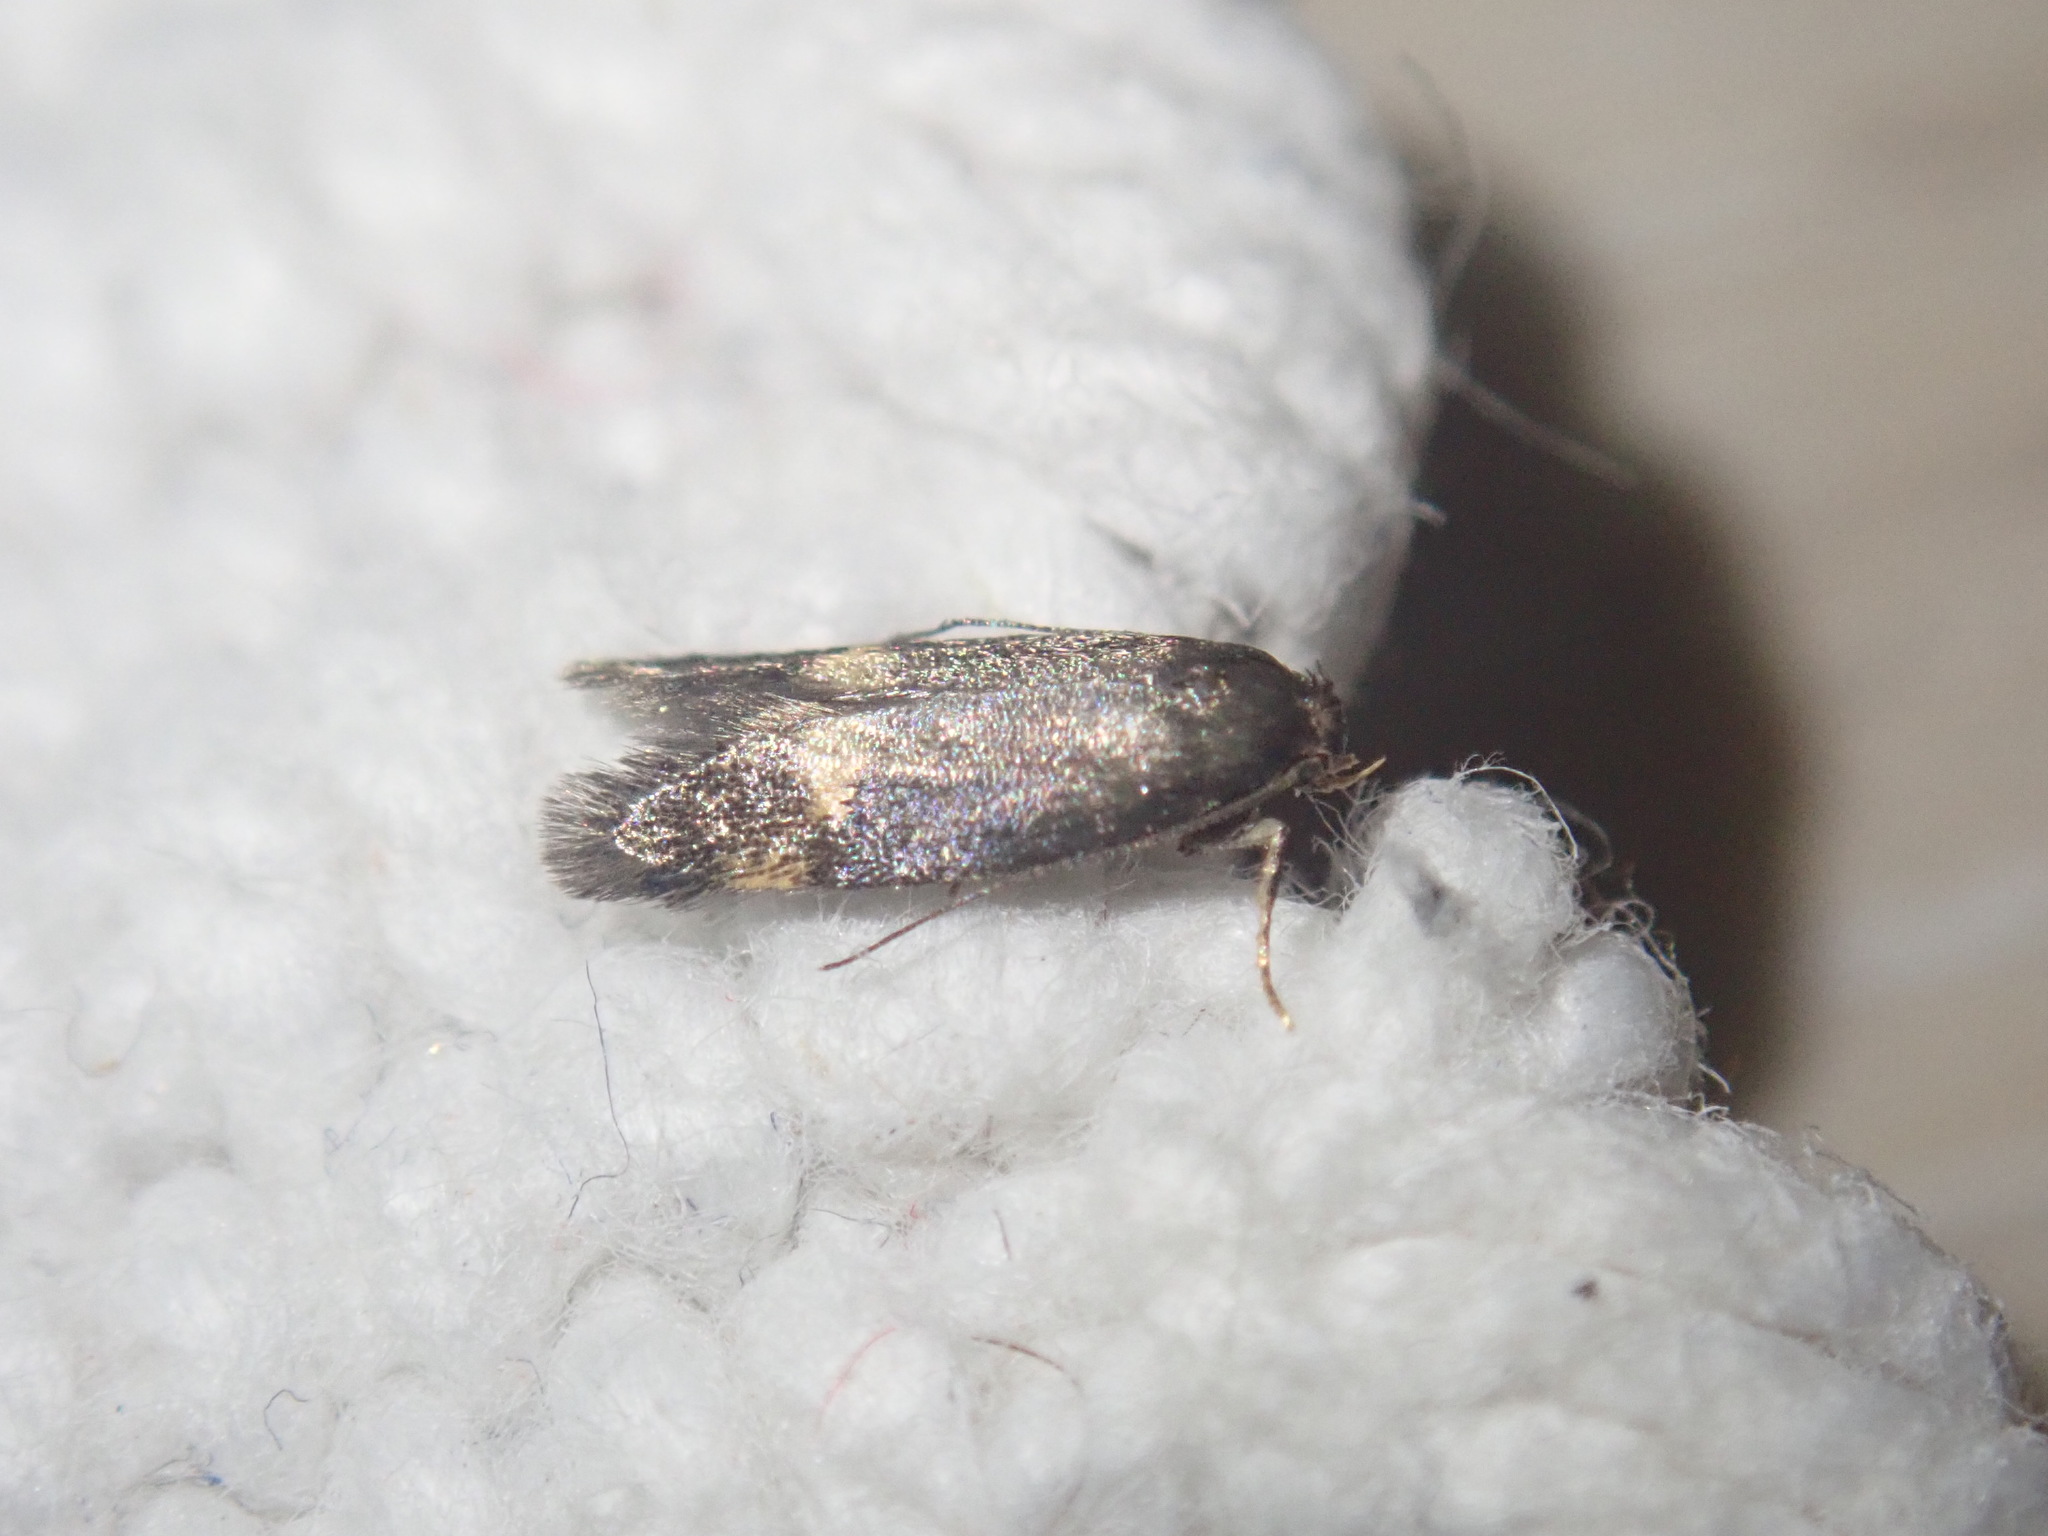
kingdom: Animalia
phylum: Arthropoda
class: Insecta
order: Lepidoptera
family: Oecophoridae
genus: Borkhausenia
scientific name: Borkhausenia minutella
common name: Thatch tubic
